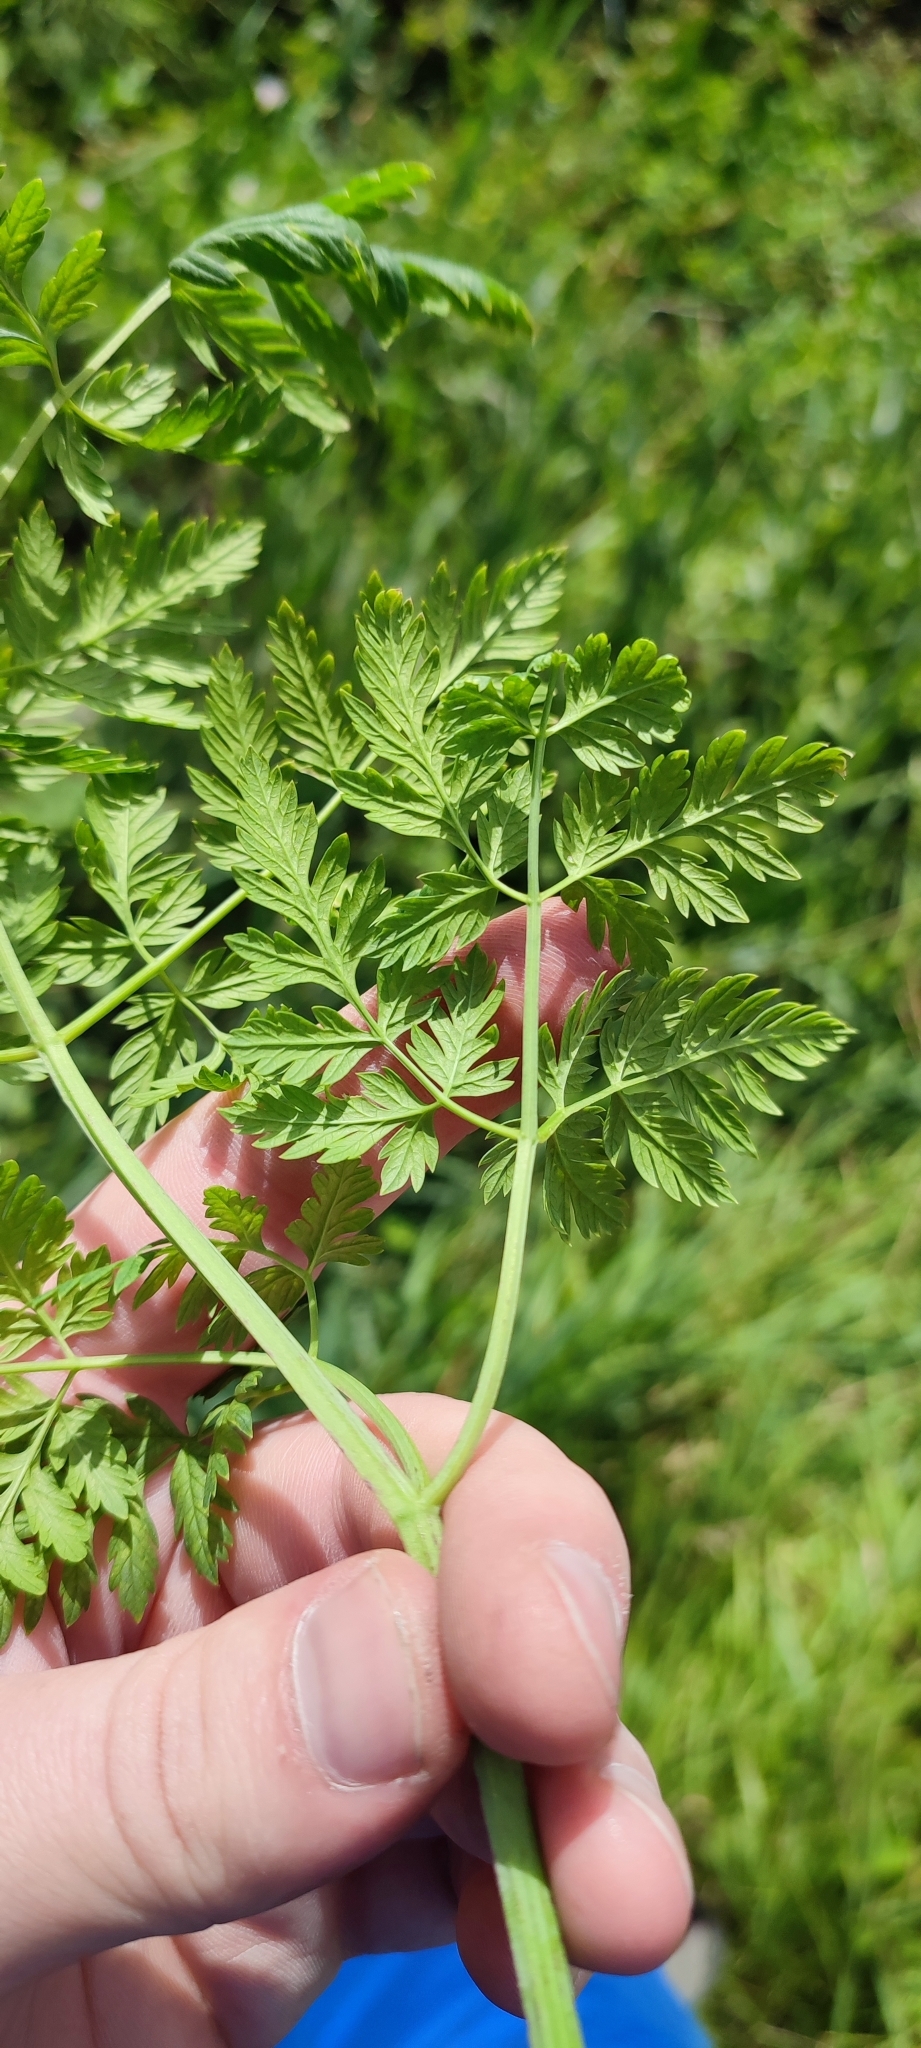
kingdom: Plantae
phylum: Tracheophyta
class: Magnoliopsida
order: Apiales
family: Apiaceae
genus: Anthriscus
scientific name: Anthriscus sylvestris
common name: Cow parsley
